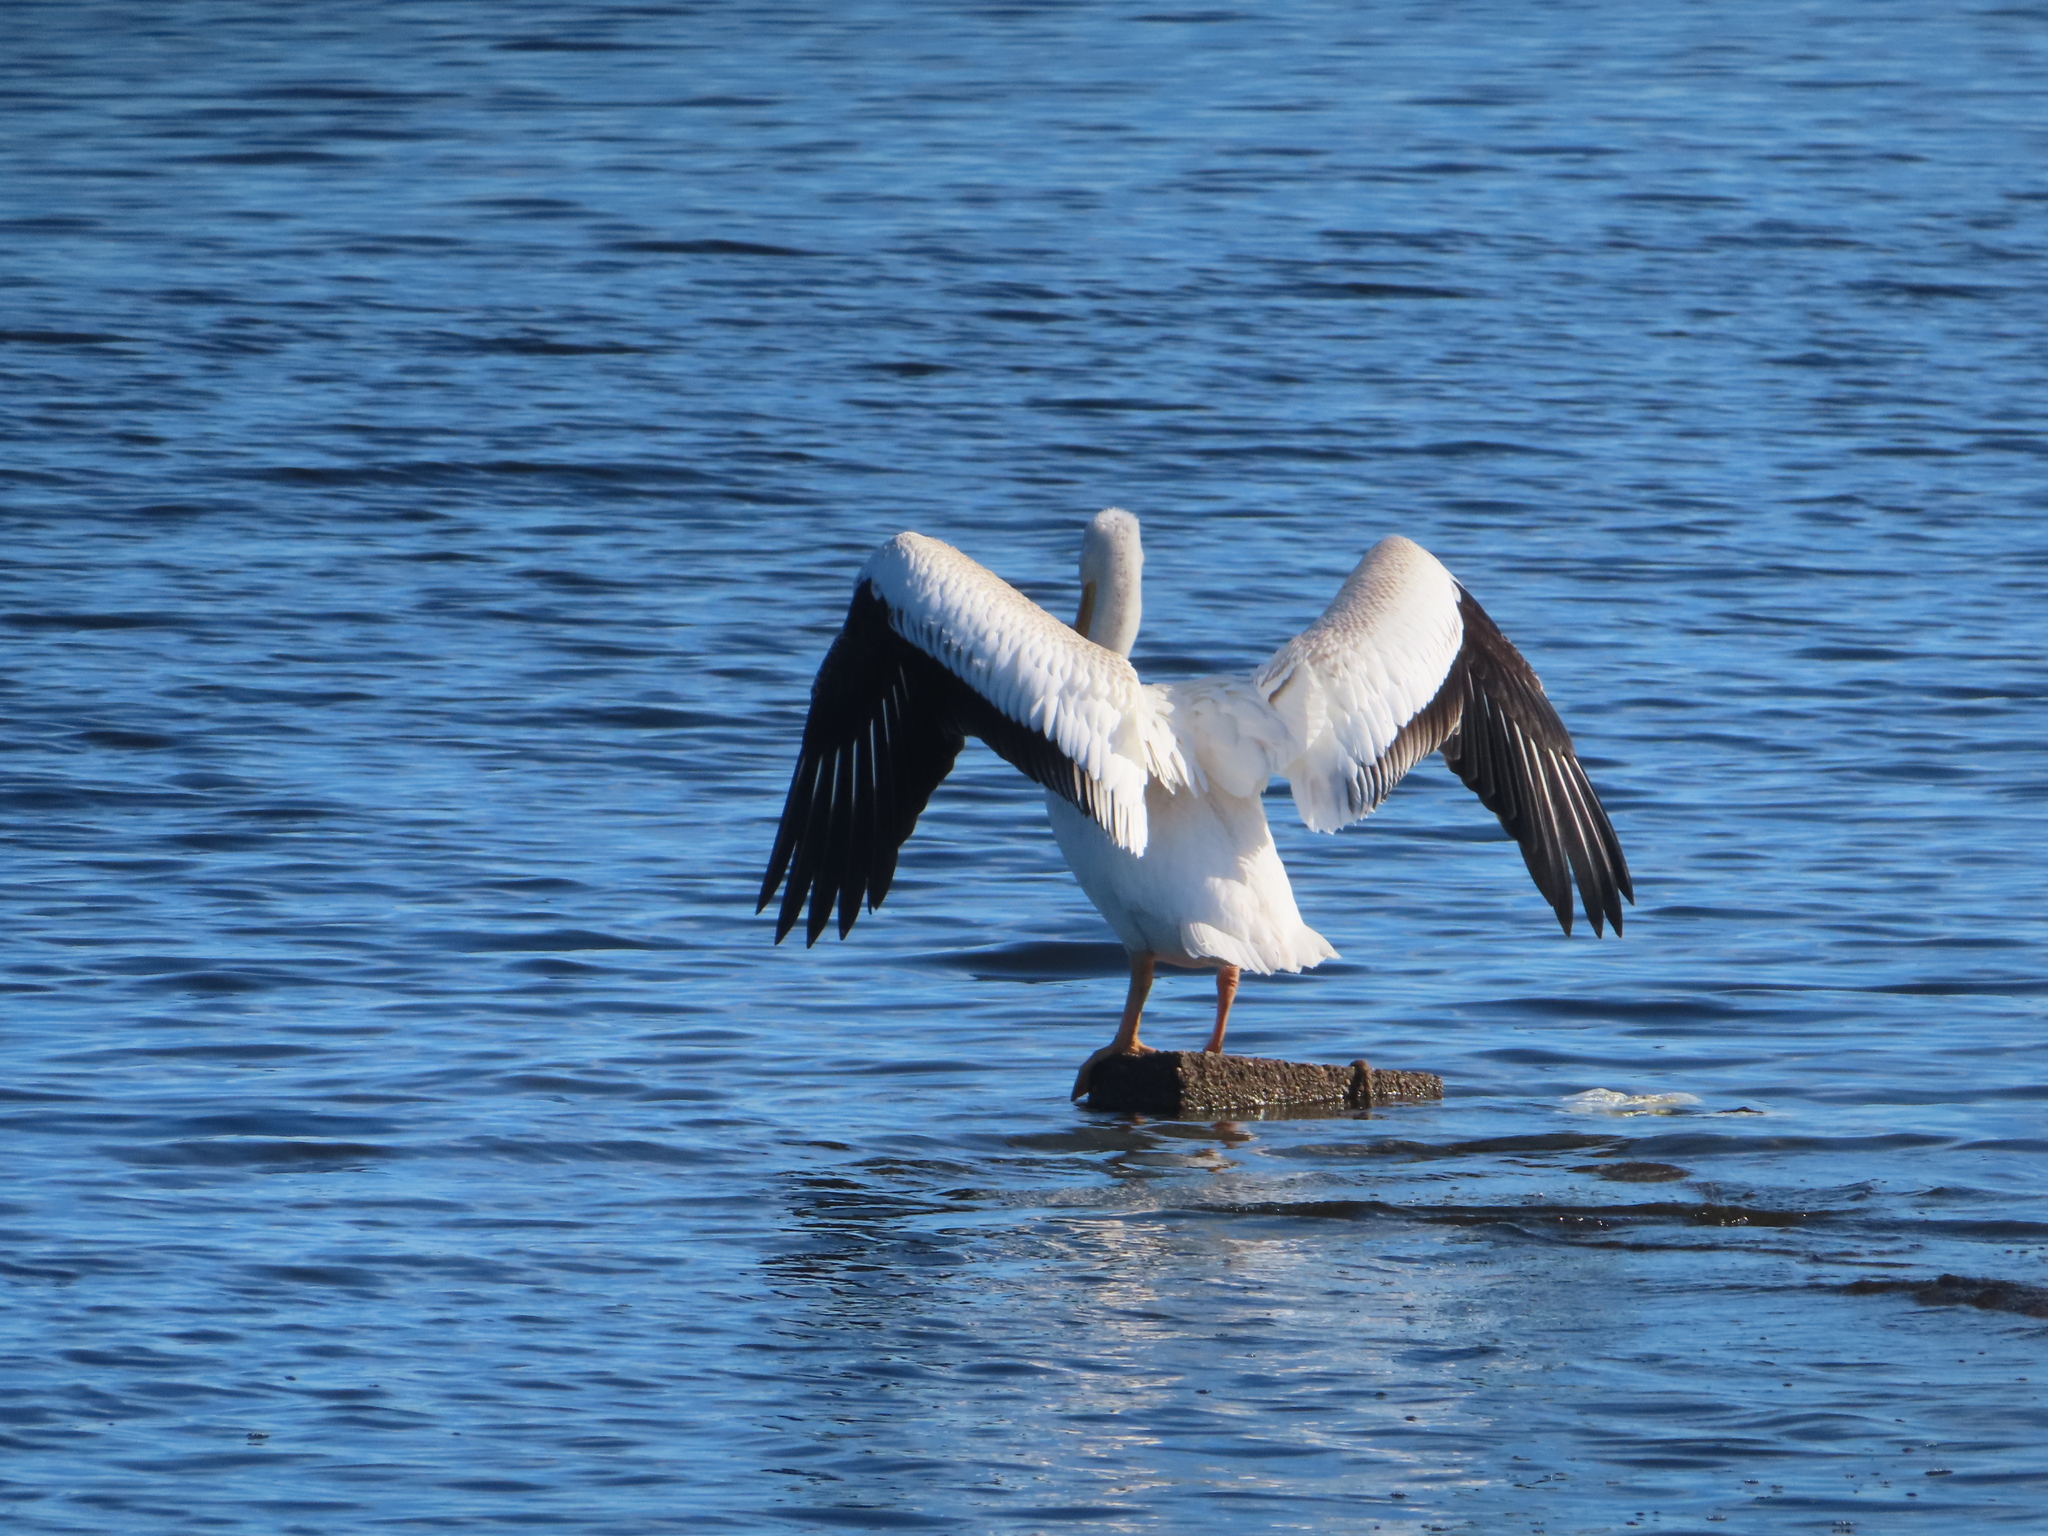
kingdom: Animalia
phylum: Chordata
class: Aves
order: Pelecaniformes
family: Pelecanidae
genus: Pelecanus
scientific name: Pelecanus erythrorhynchos
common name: American white pelican
